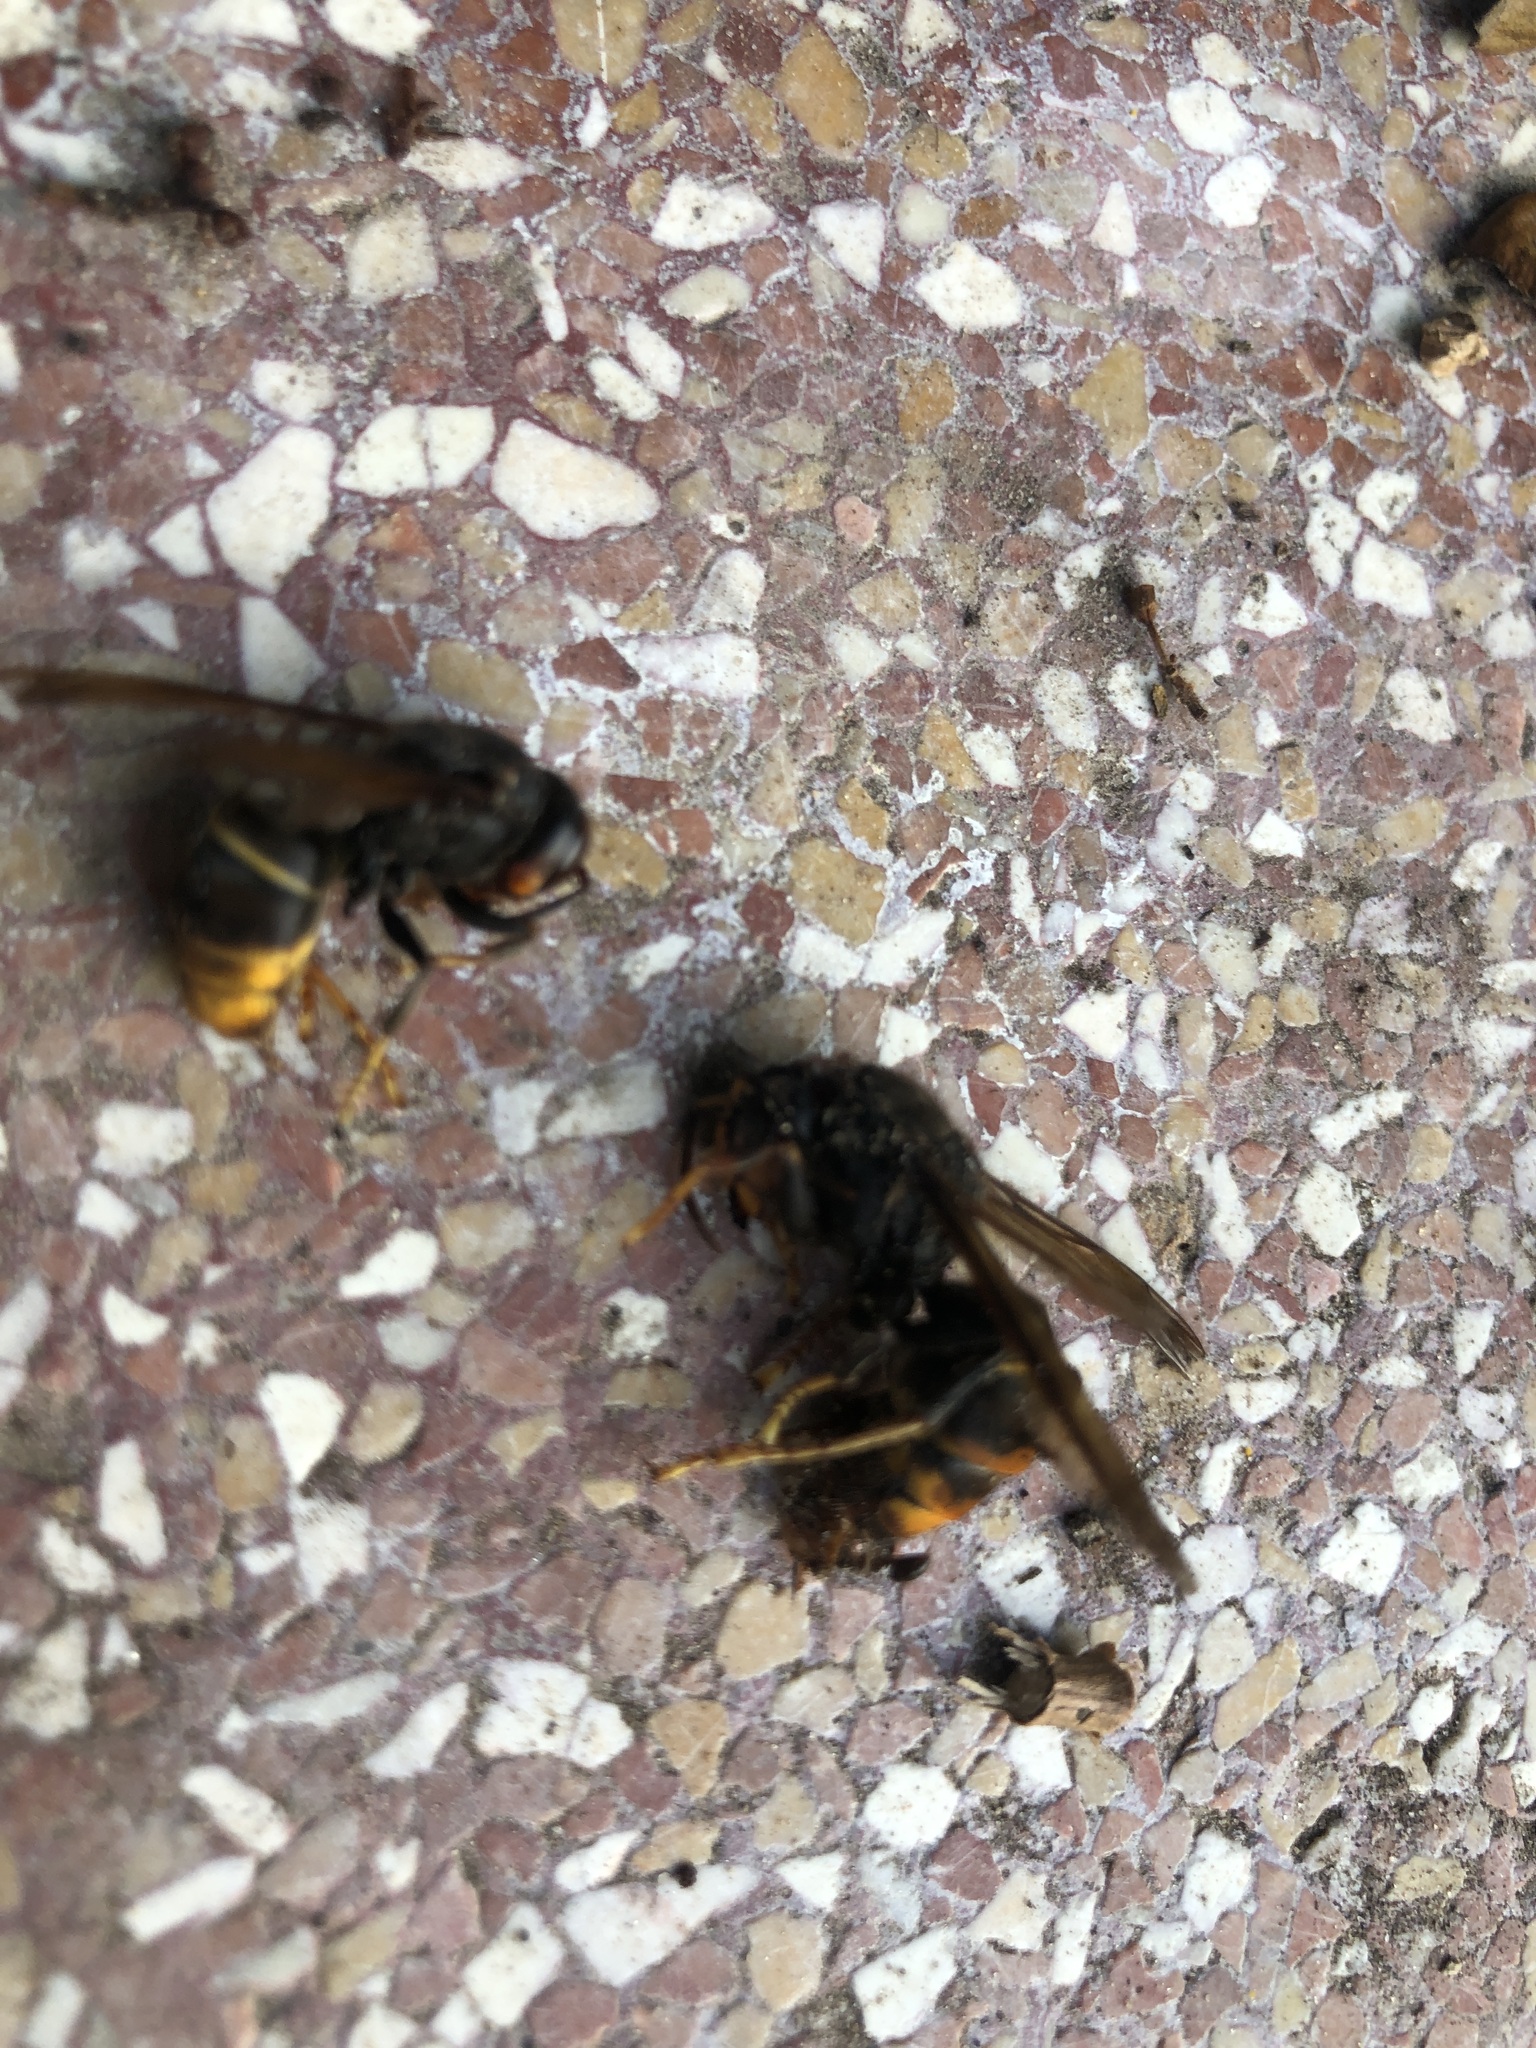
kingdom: Animalia
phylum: Arthropoda
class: Insecta
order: Hymenoptera
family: Vespidae
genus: Vespa
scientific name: Vespa velutina
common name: Asian hornet
